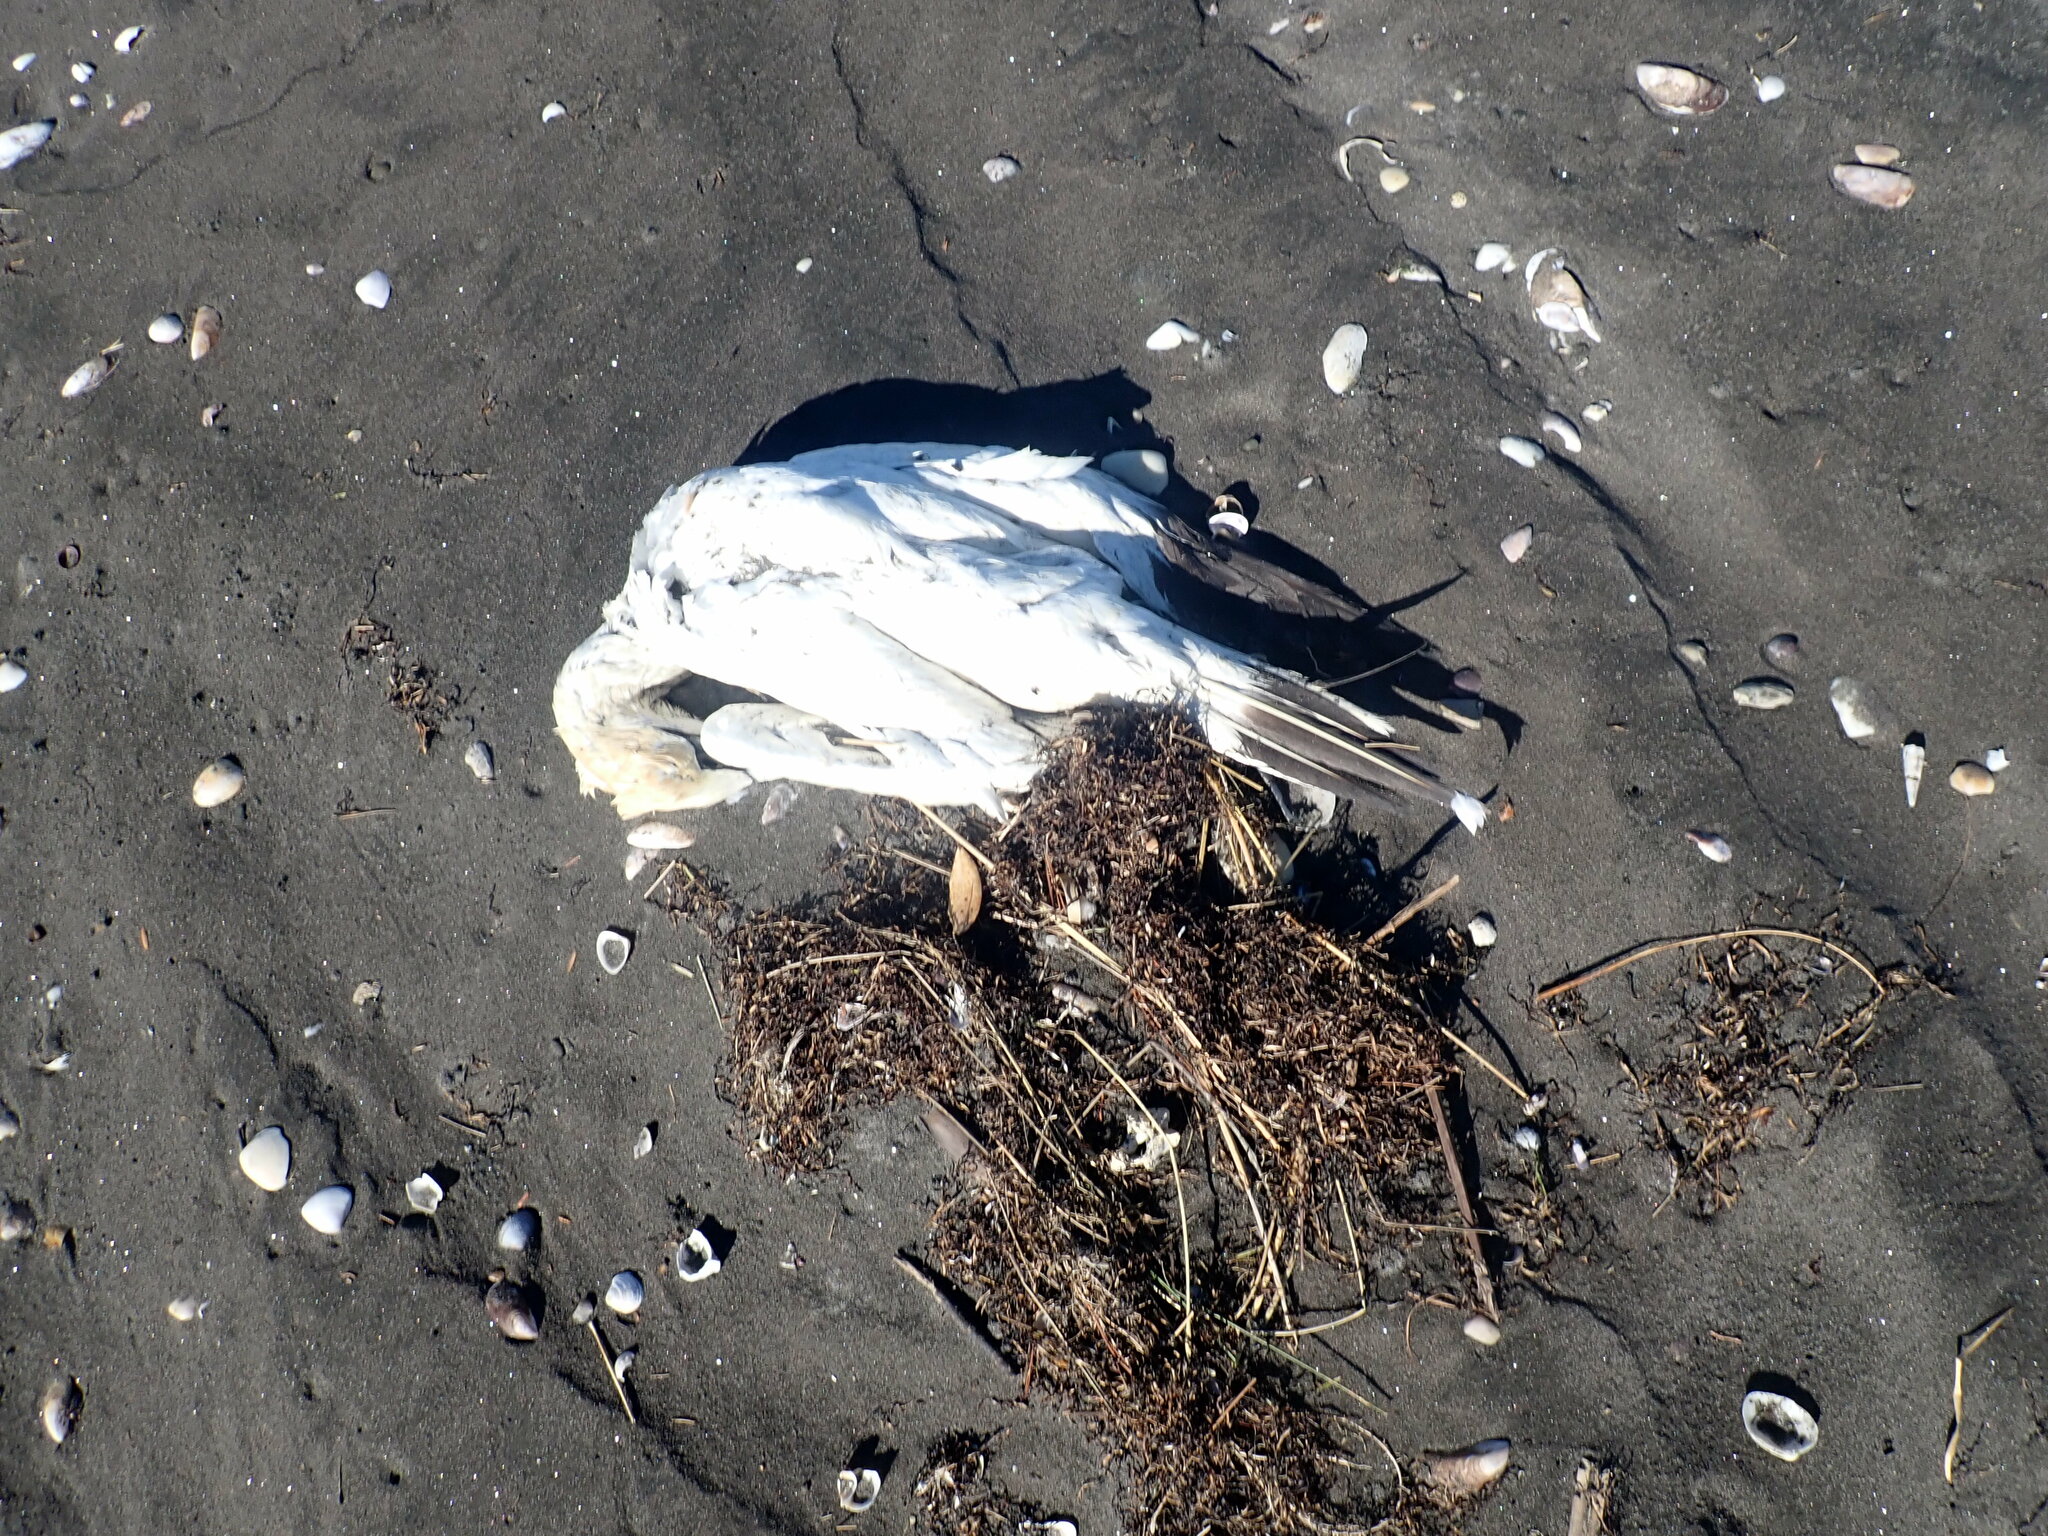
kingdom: Animalia
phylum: Chordata
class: Aves
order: Suliformes
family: Sulidae
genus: Morus
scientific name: Morus serrator
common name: Australasian gannet
